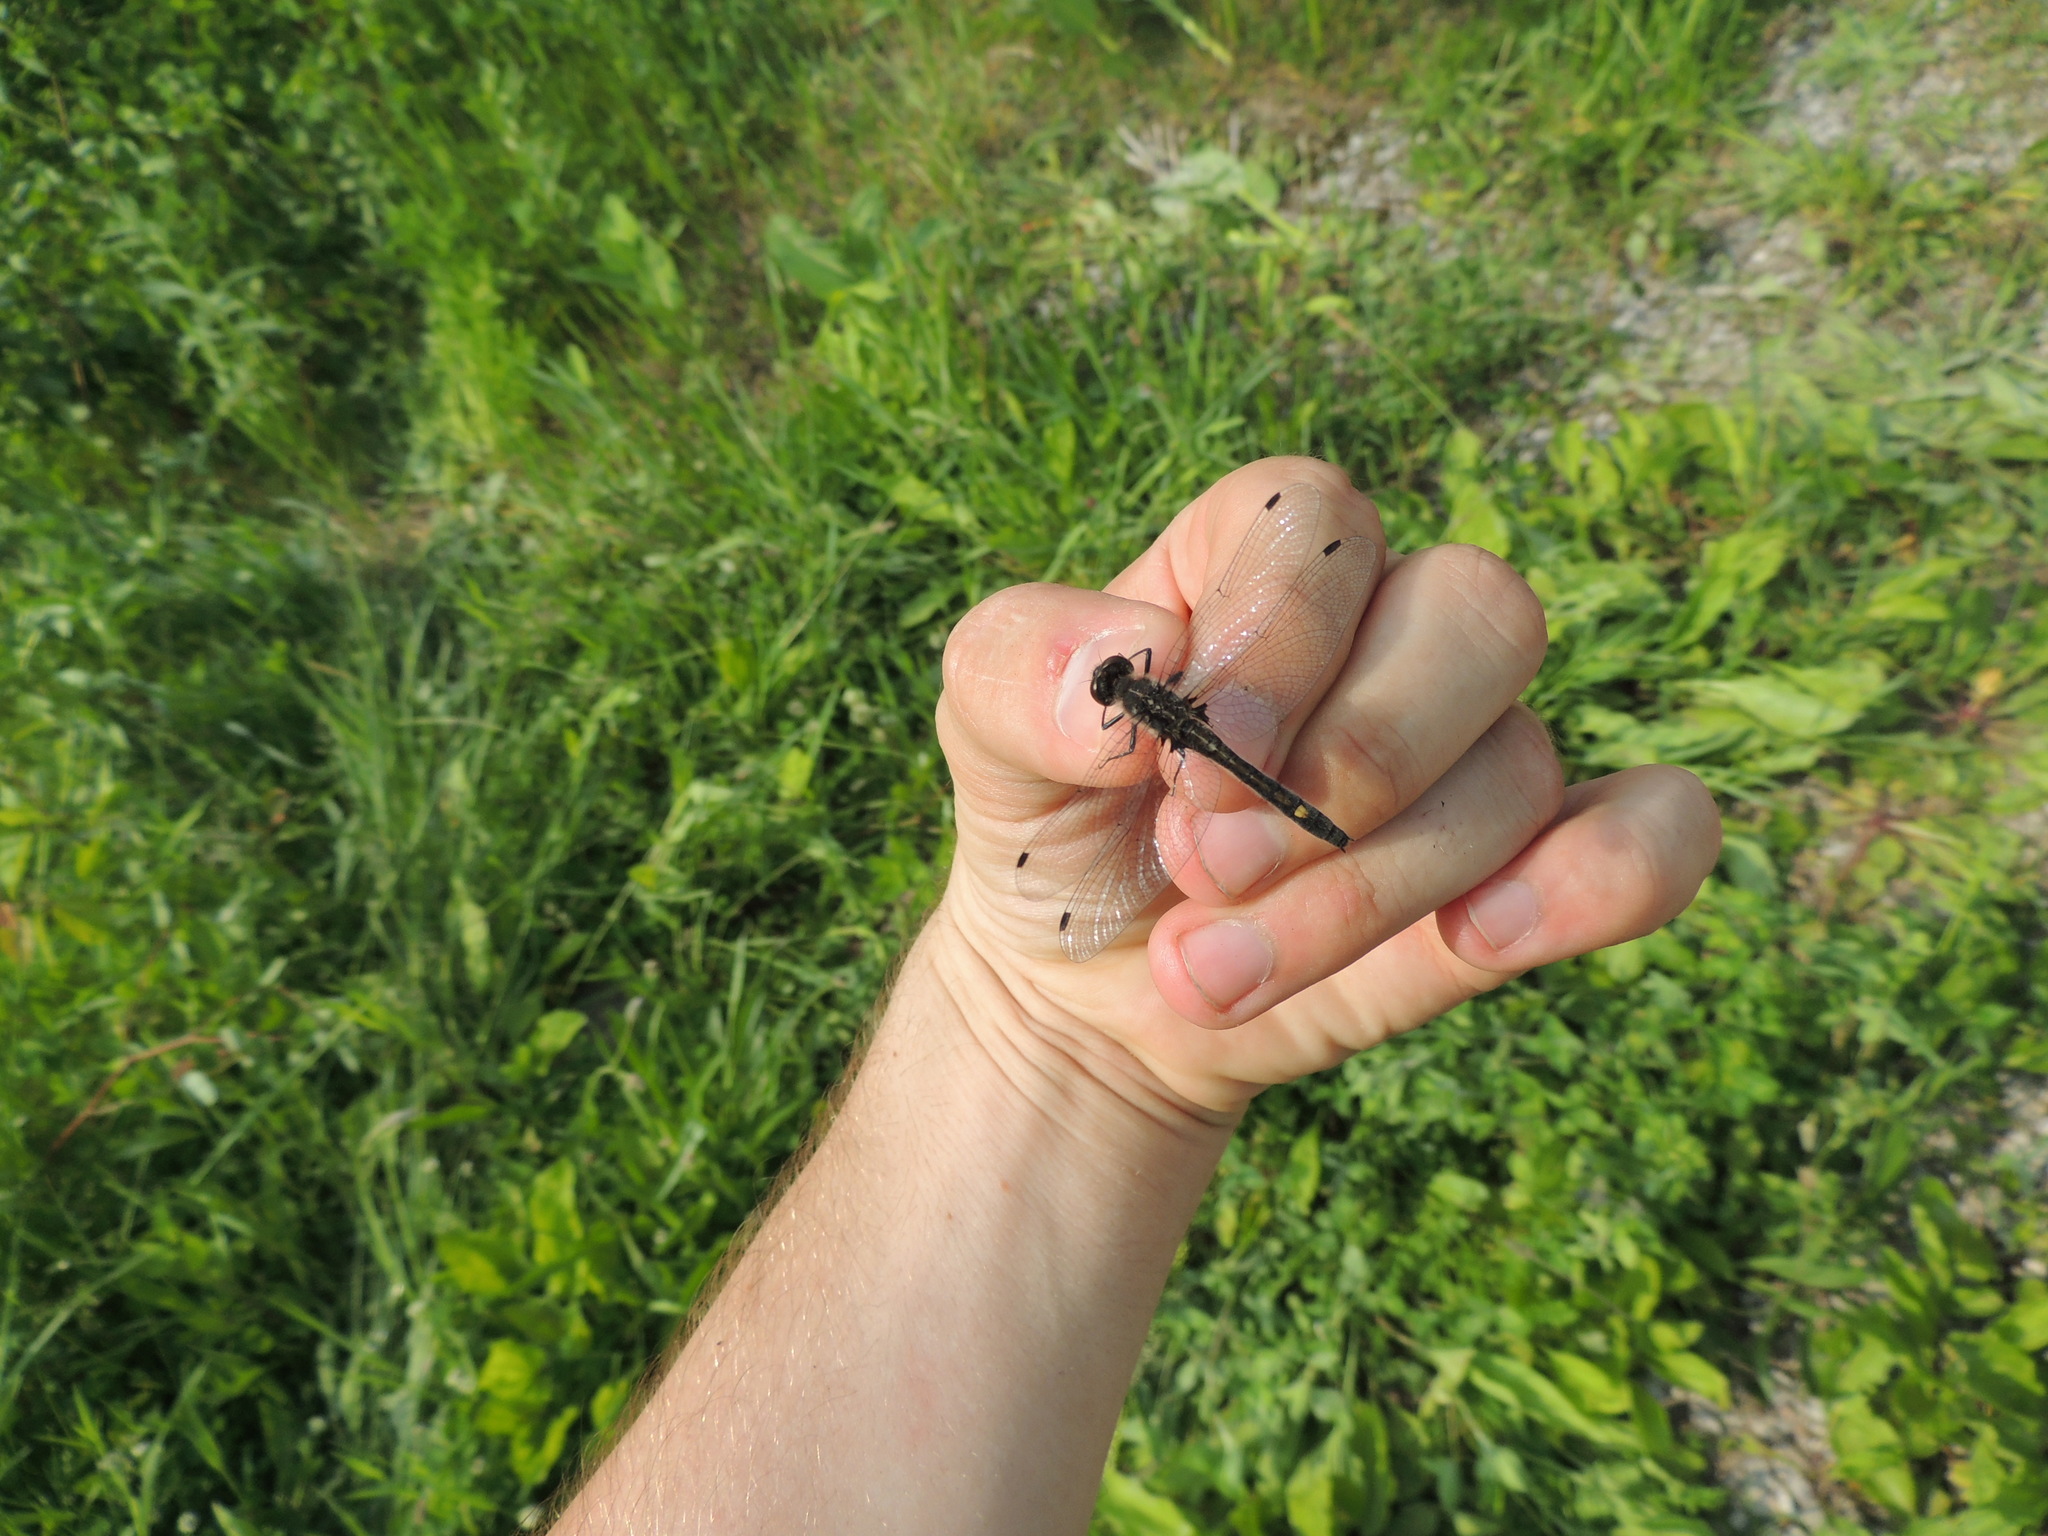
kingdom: Animalia
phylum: Arthropoda
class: Insecta
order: Odonata
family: Libellulidae
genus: Leucorrhinia
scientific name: Leucorrhinia intacta
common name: Dot-tailed whiteface
